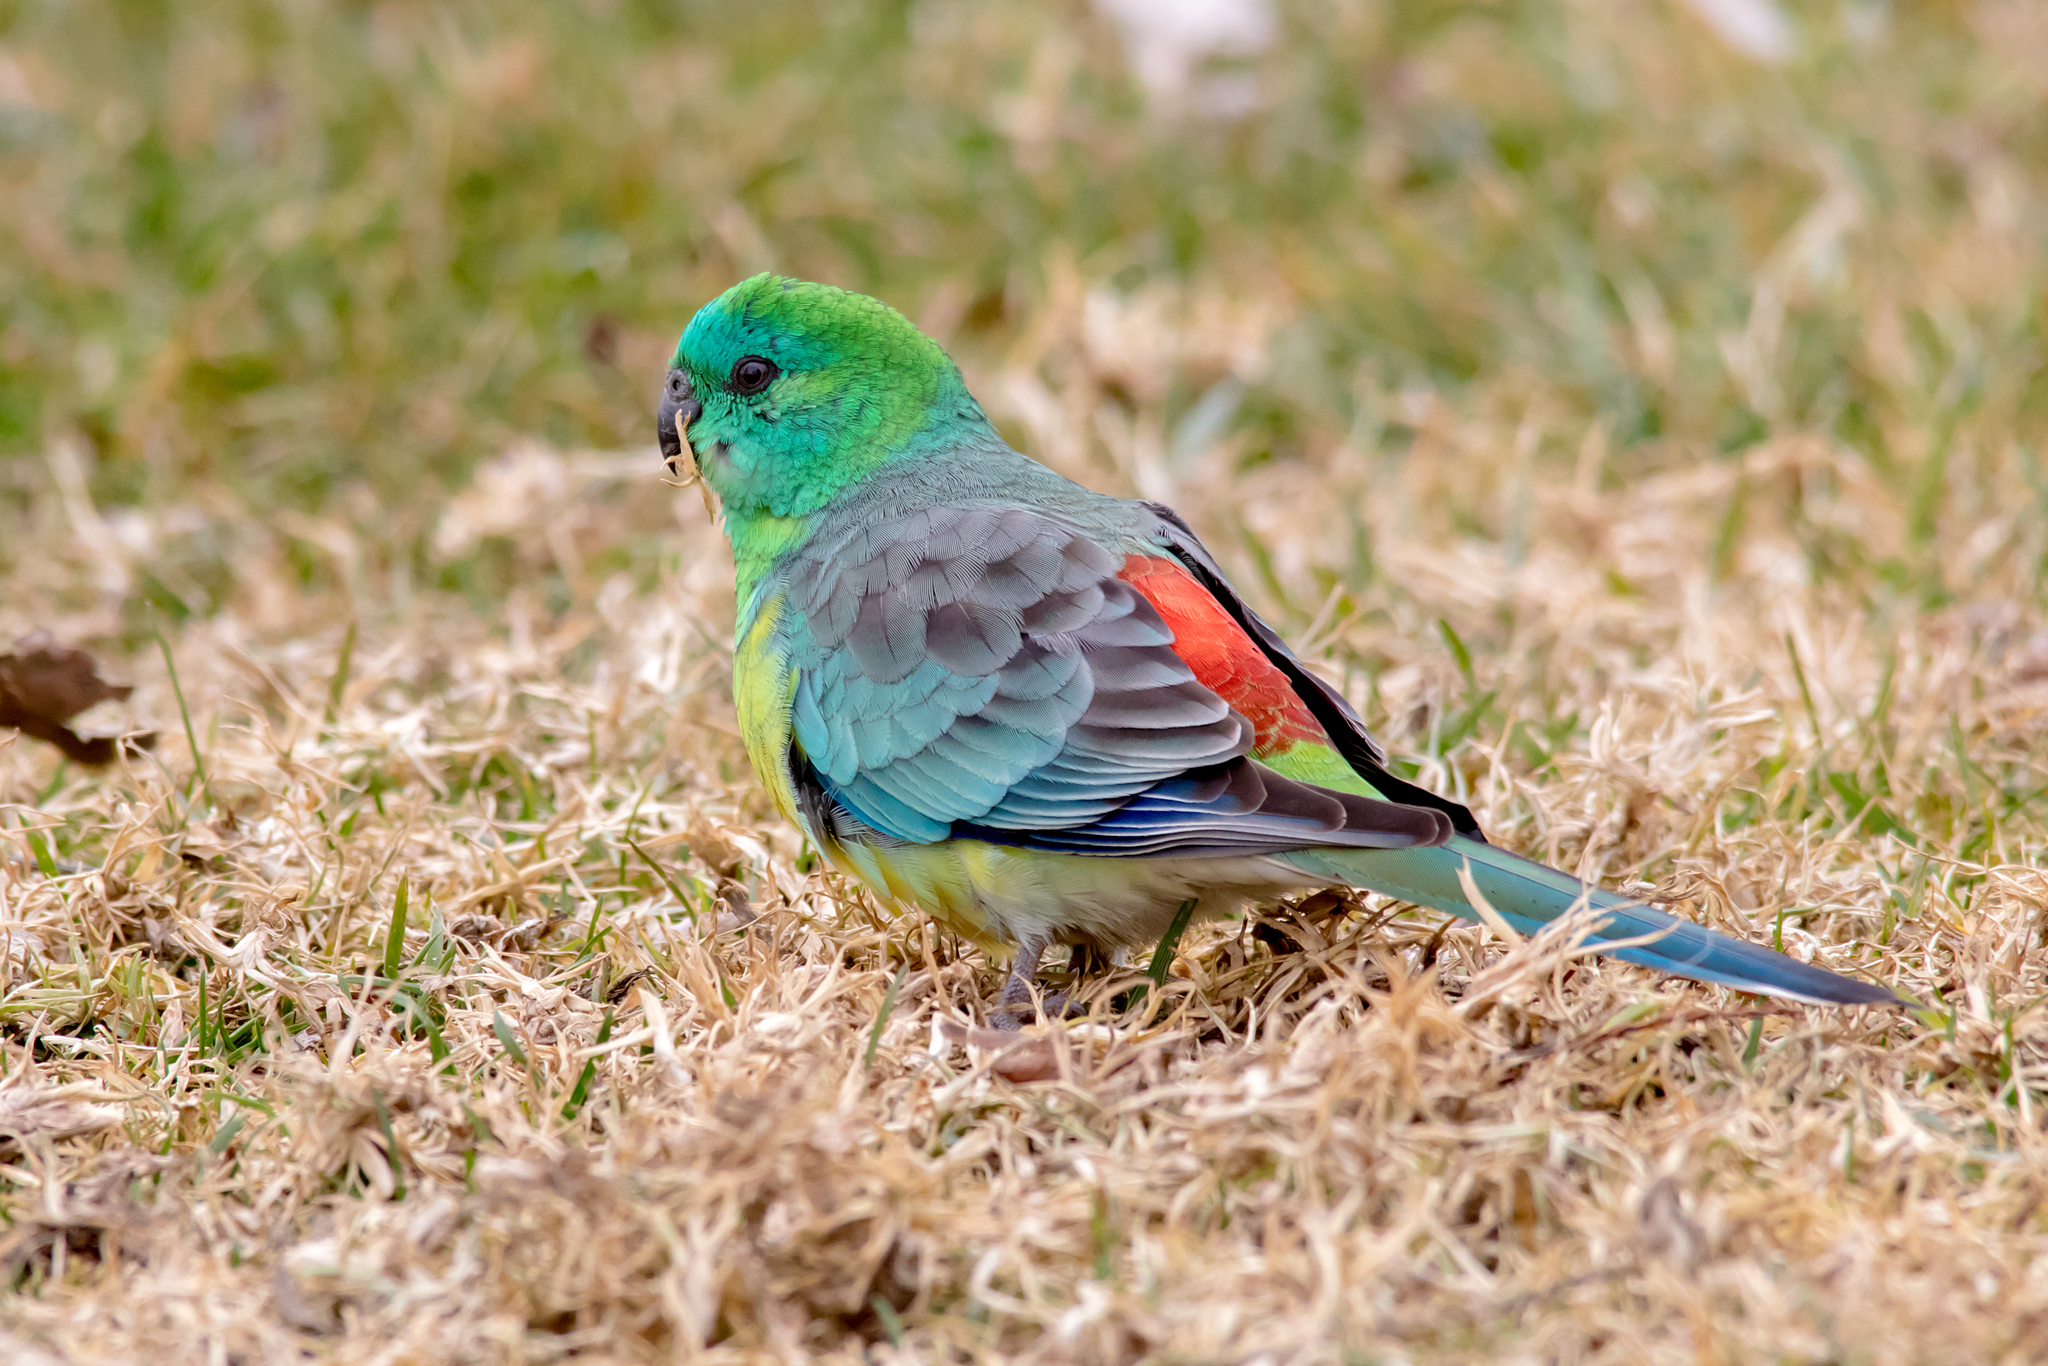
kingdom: Animalia
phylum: Chordata
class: Aves
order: Psittaciformes
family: Psittacidae
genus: Psephotus
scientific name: Psephotus haematonotus
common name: Red-rumped parrot
